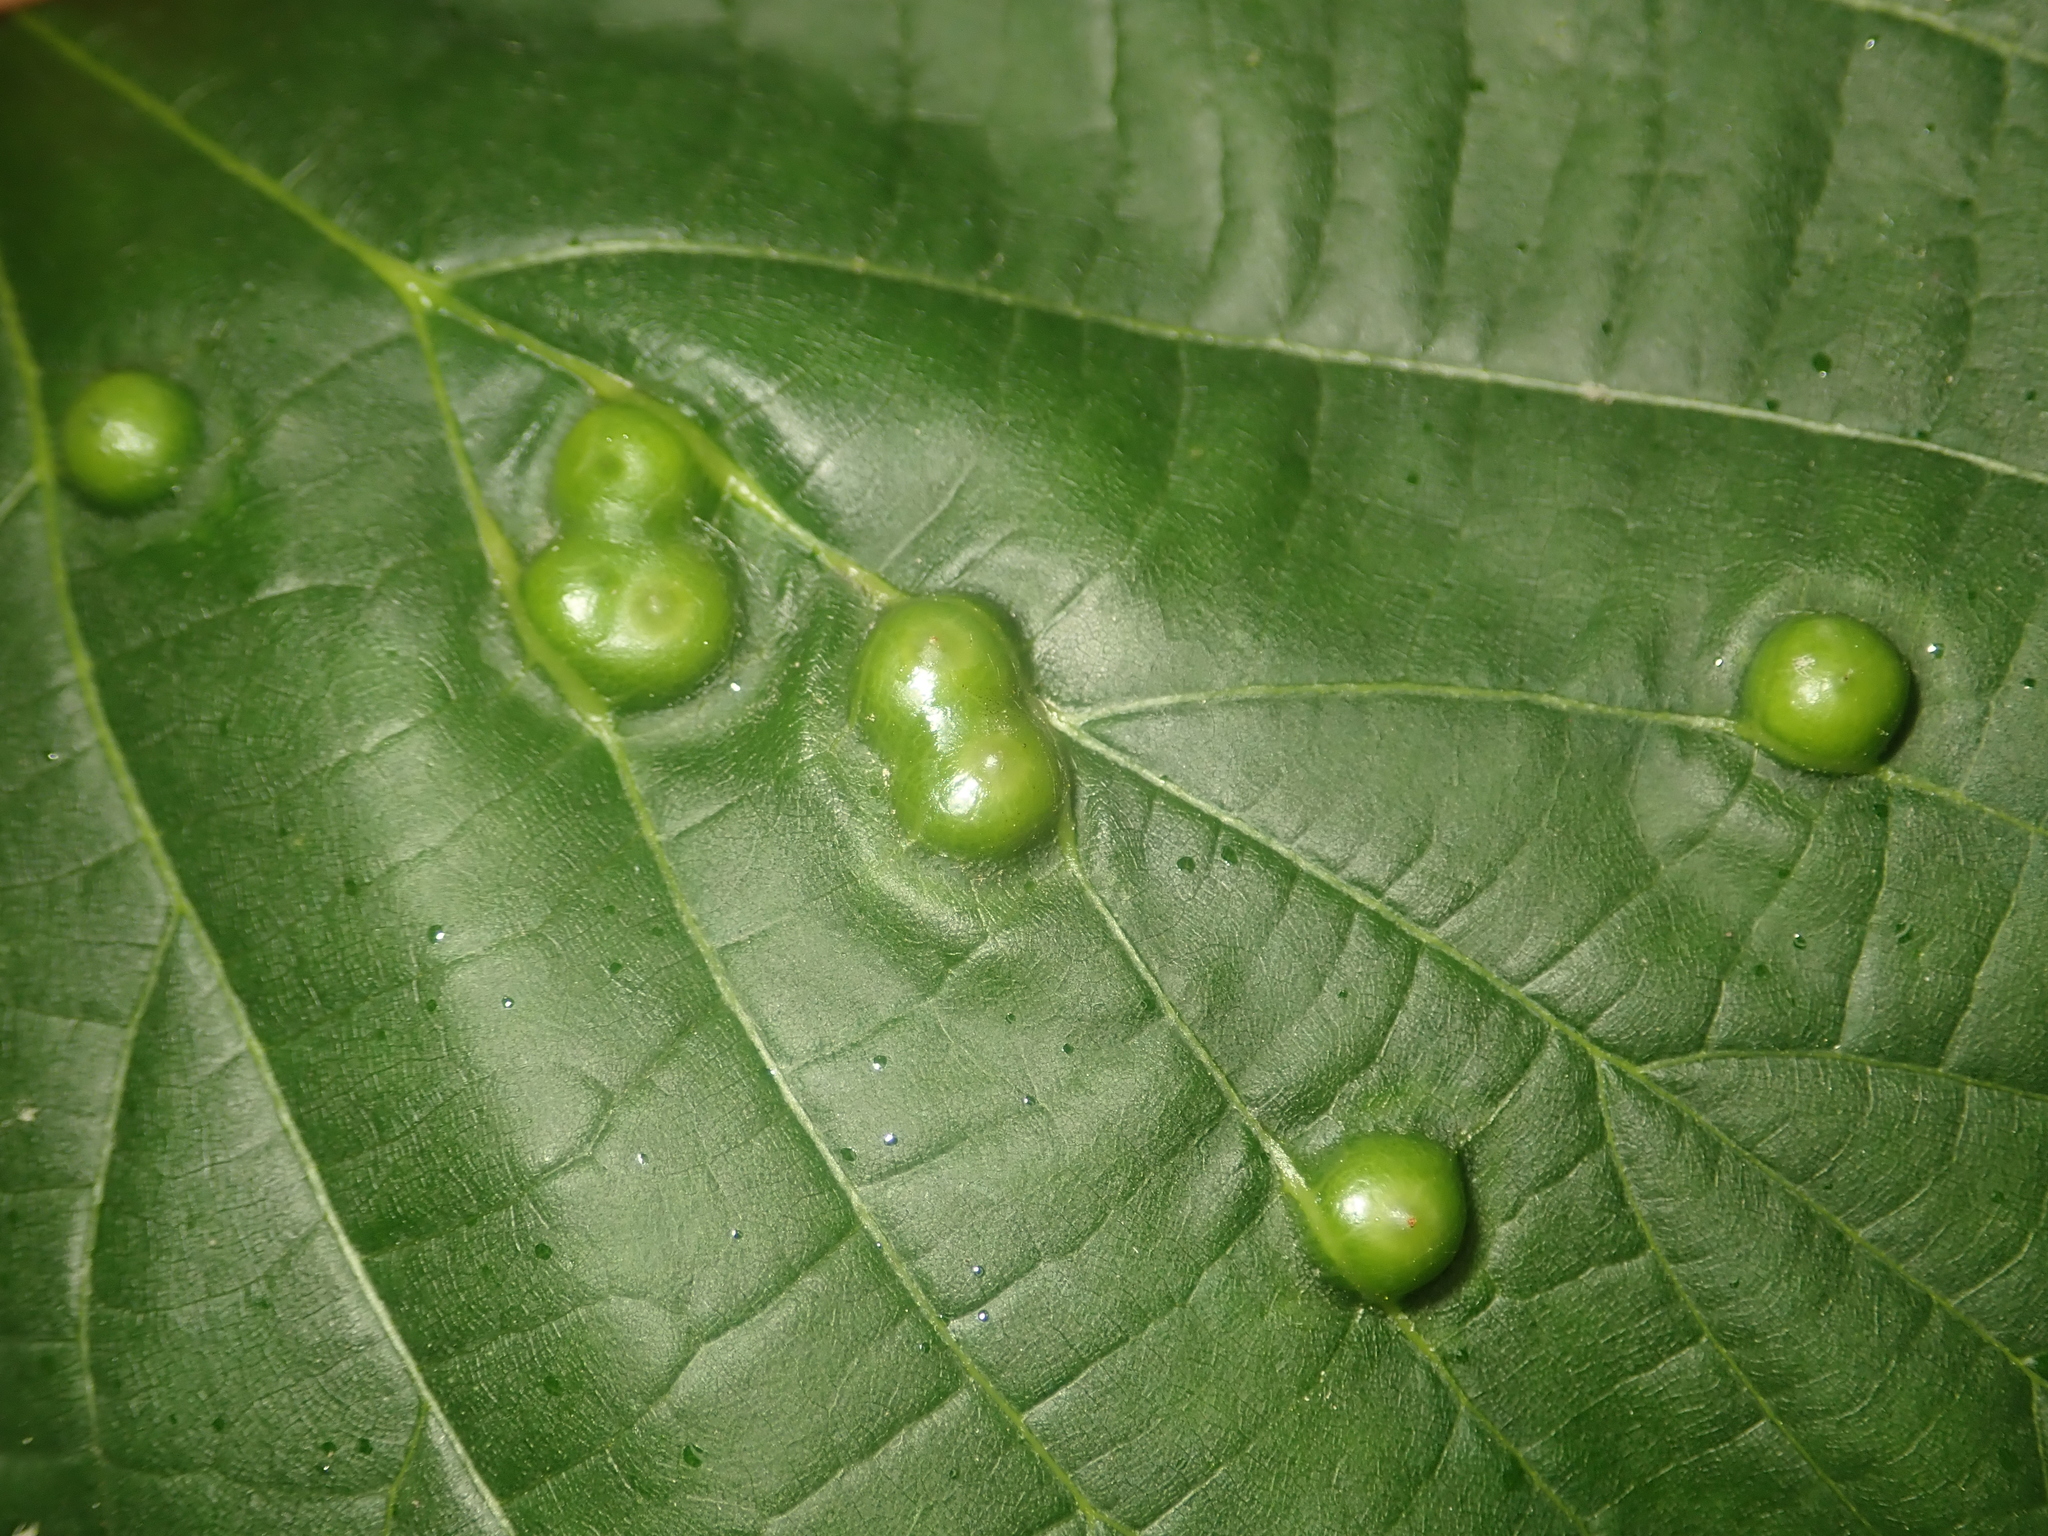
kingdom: Animalia
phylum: Arthropoda
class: Insecta
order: Diptera
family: Cecidomyiidae
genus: Didymomyia
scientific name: Didymomyia tiliacea
